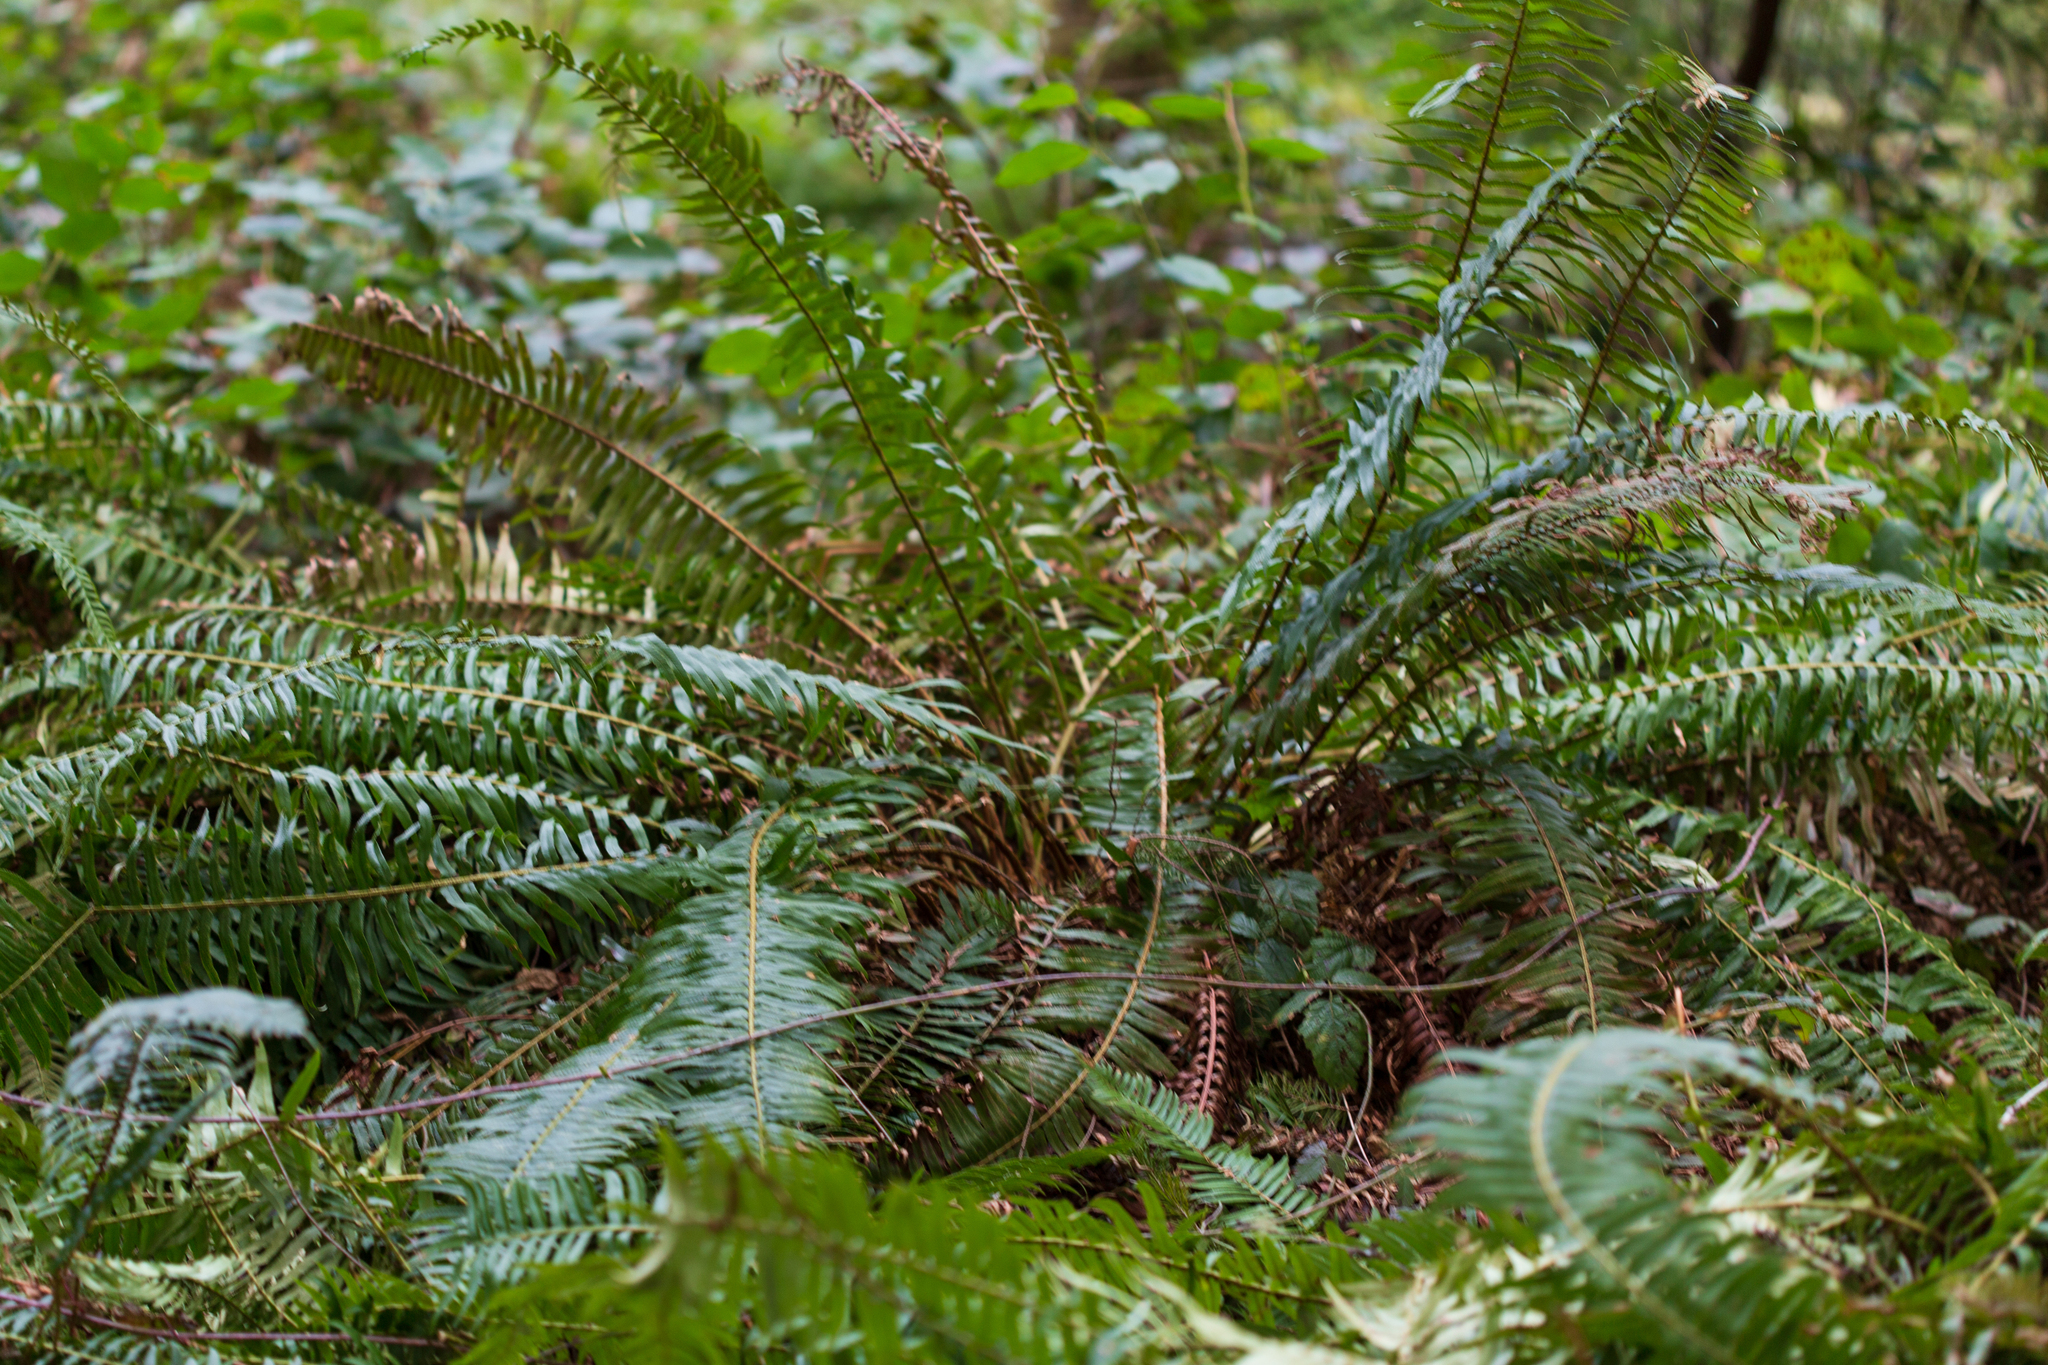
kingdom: Plantae
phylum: Tracheophyta
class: Polypodiopsida
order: Polypodiales
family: Dryopteridaceae
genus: Polystichum
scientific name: Polystichum munitum
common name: Western sword-fern
